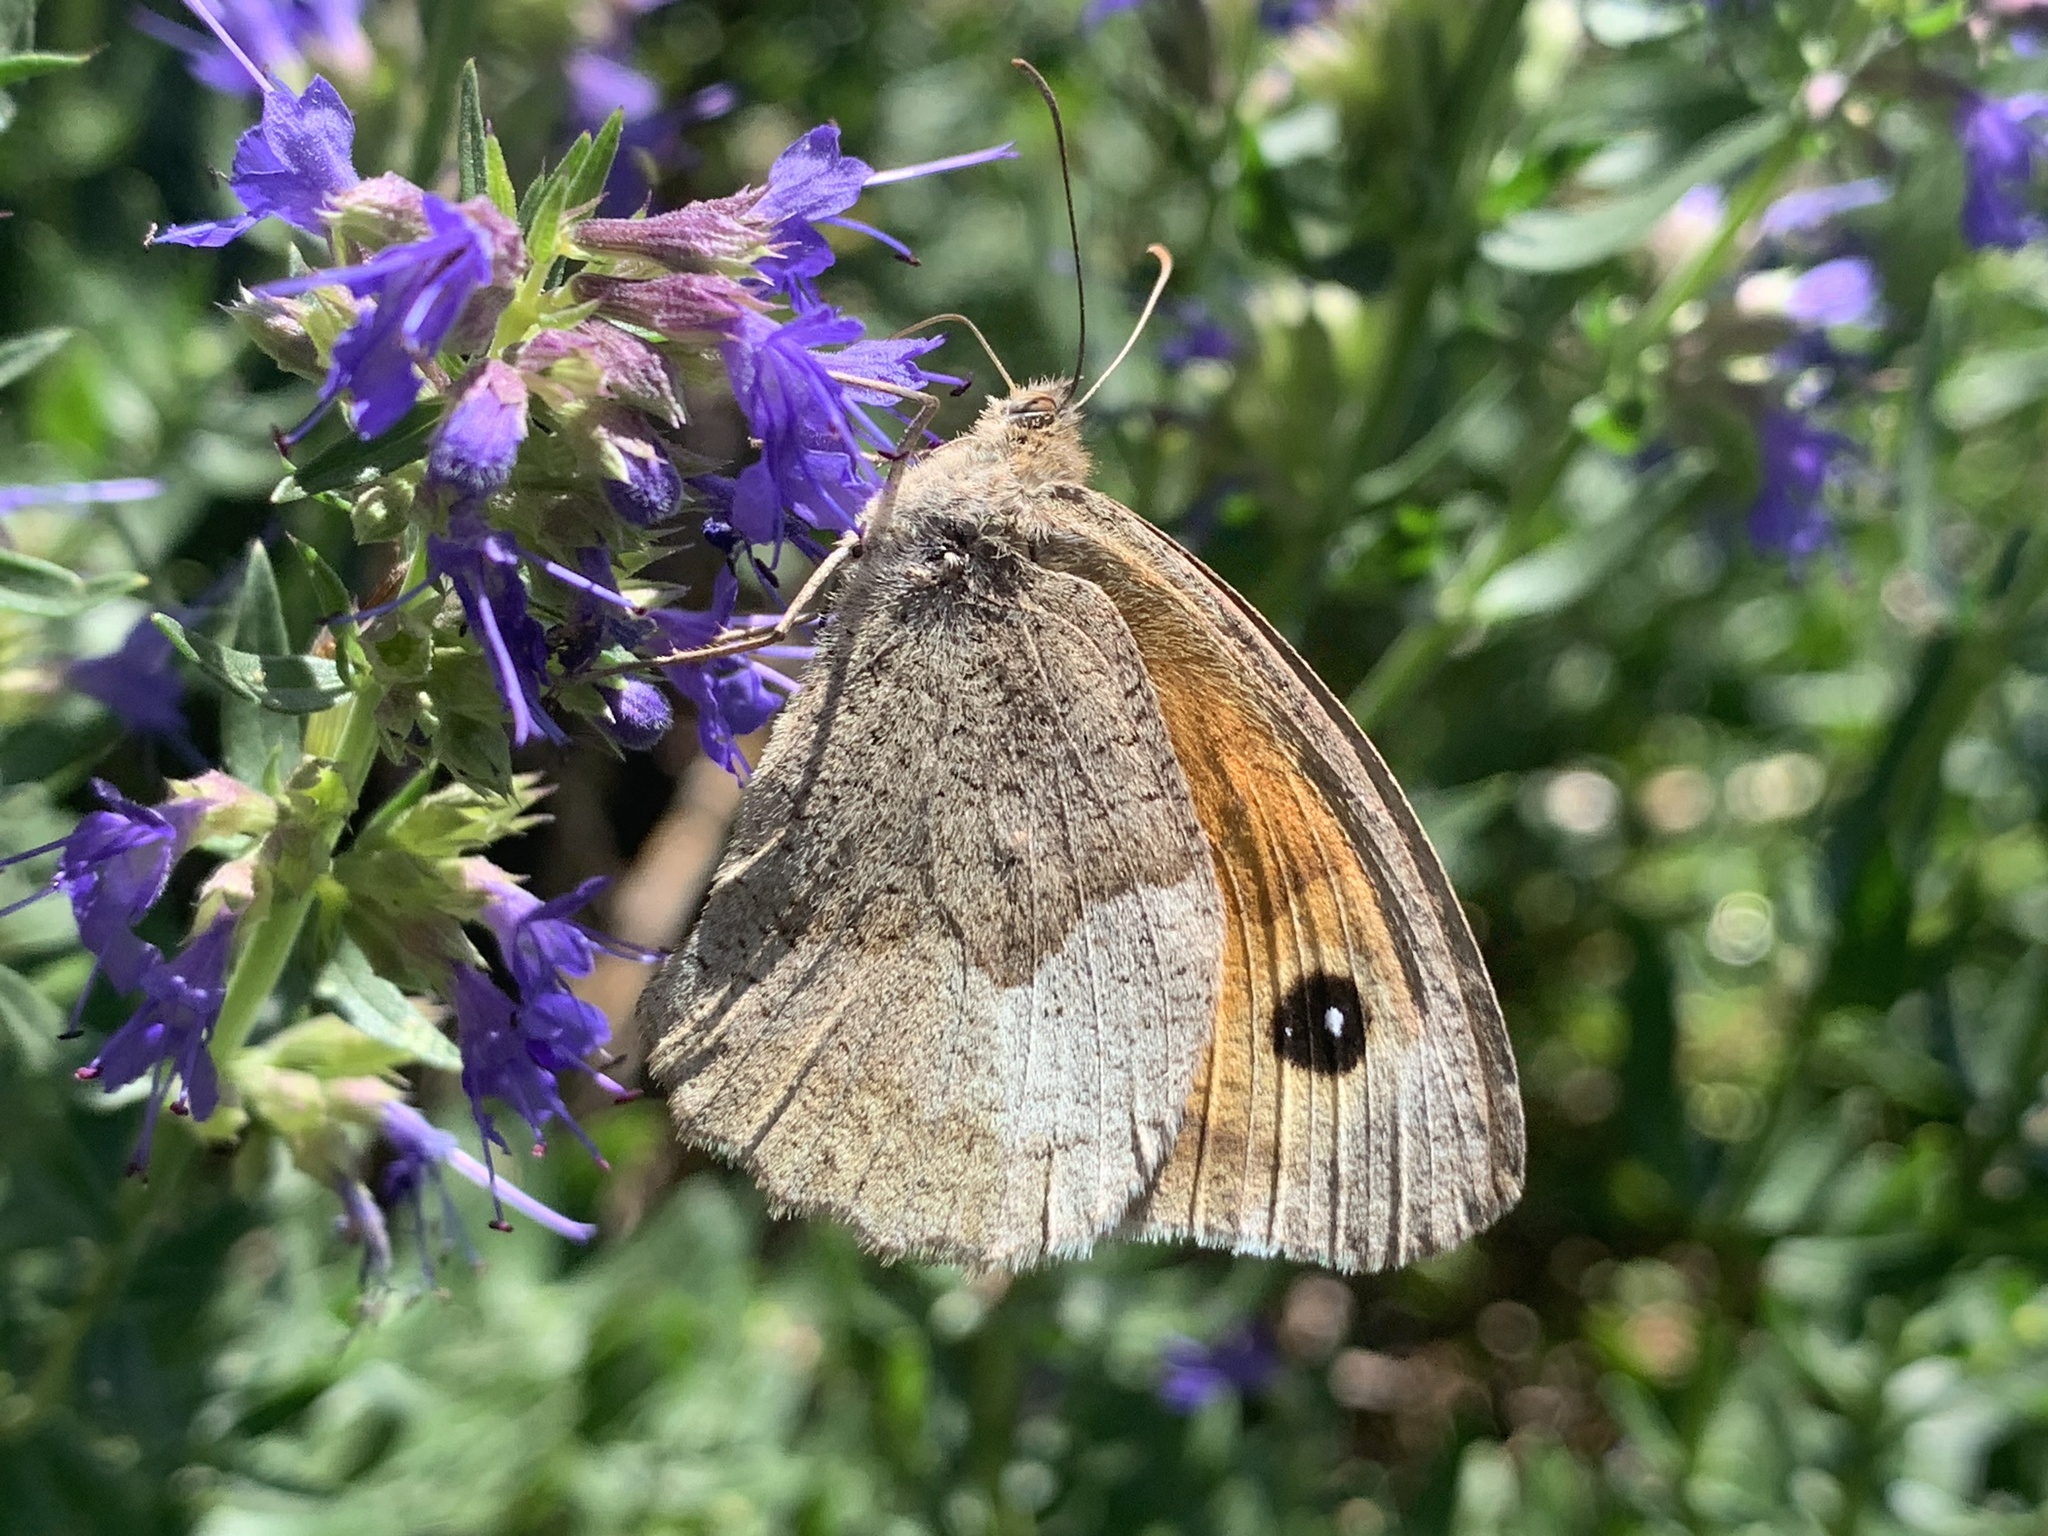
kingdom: Animalia
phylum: Arthropoda
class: Insecta
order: Lepidoptera
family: Nymphalidae
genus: Maniola
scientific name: Maniola jurtina
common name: Meadow brown
